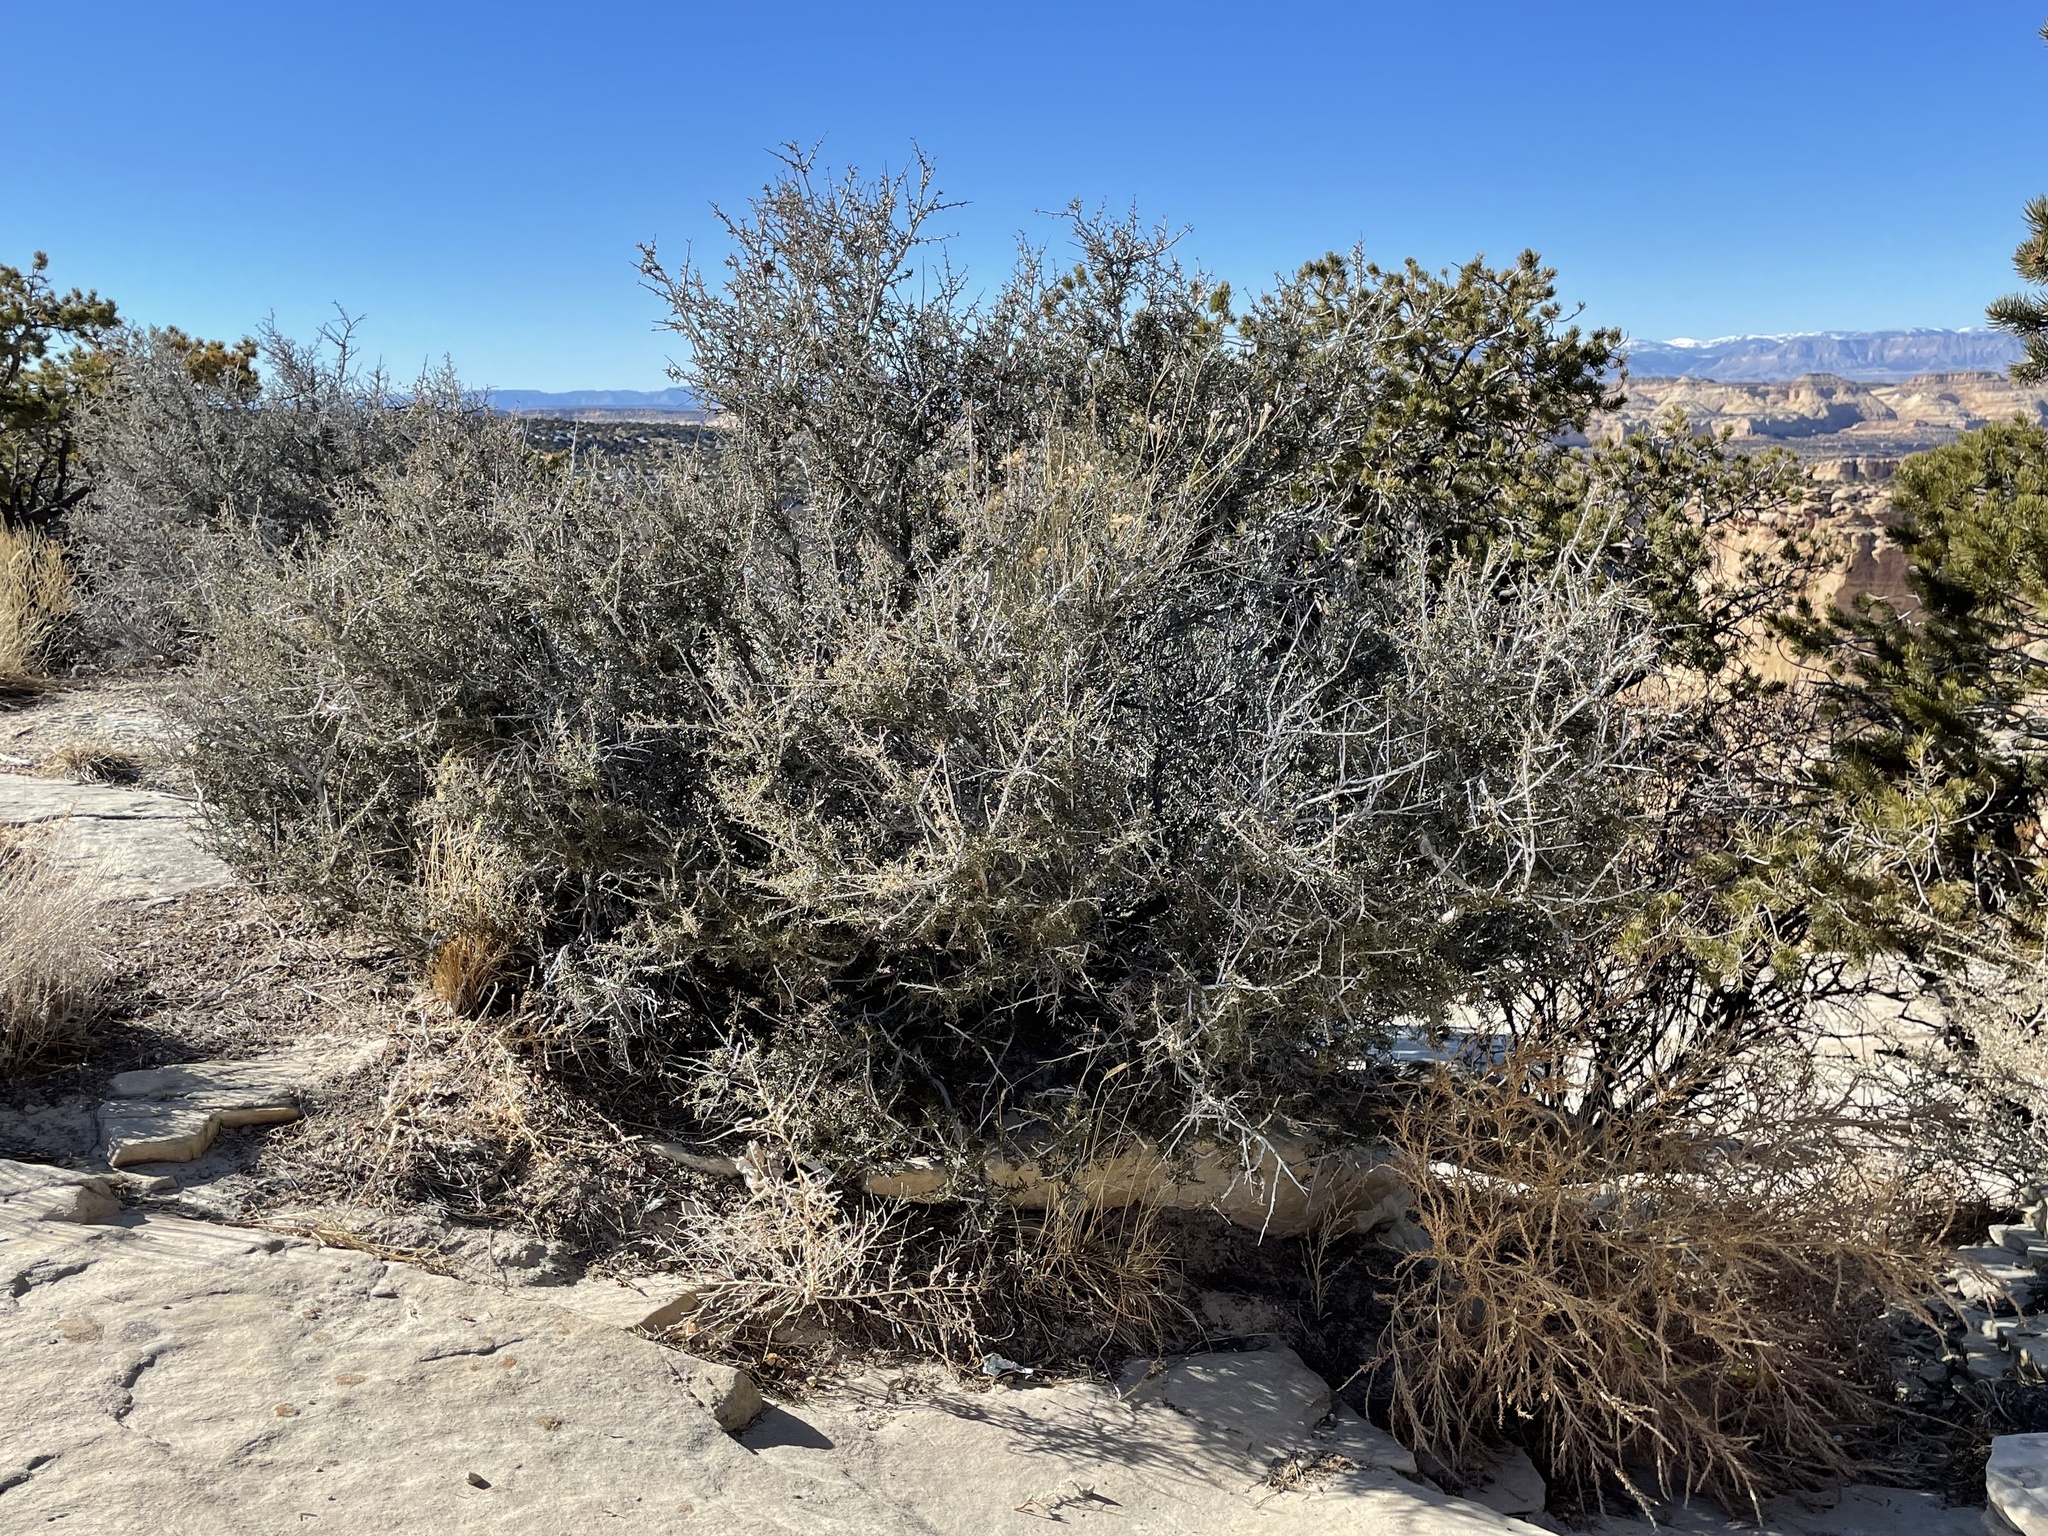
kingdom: Plantae
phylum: Tracheophyta
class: Magnoliopsida
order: Rosales
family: Rosaceae
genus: Cercocarpus
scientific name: Cercocarpus intricatus
